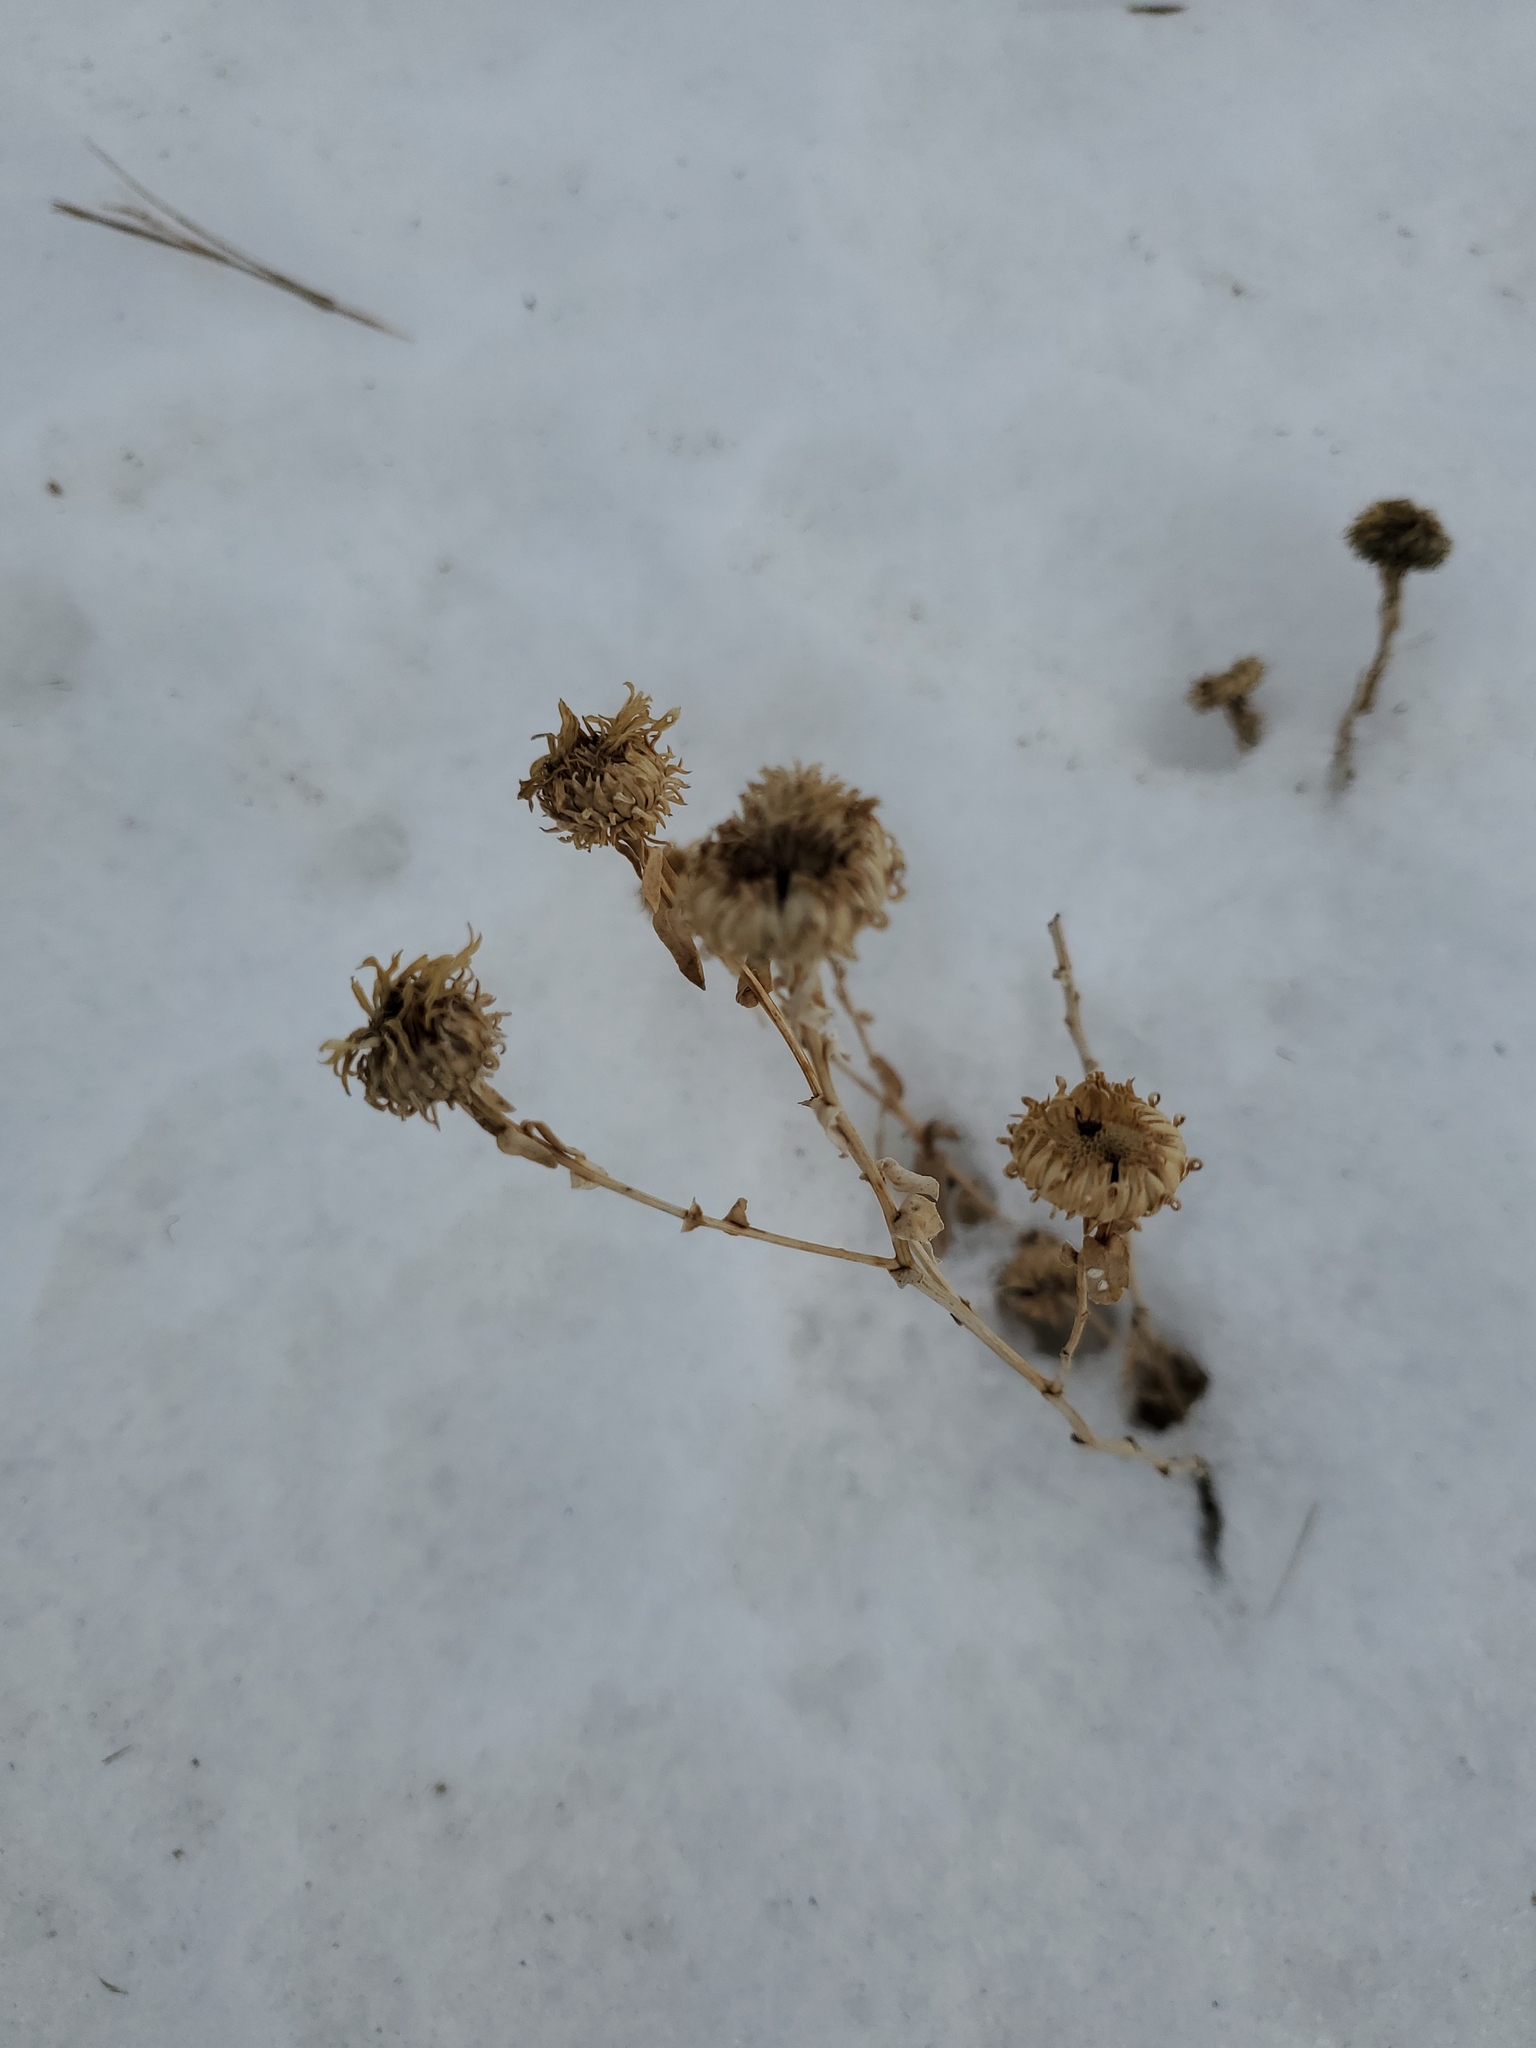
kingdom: Plantae
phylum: Tracheophyta
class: Magnoliopsida
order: Asterales
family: Asteraceae
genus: Grindelia
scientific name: Grindelia squarrosa
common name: Curly-cup gumweed
